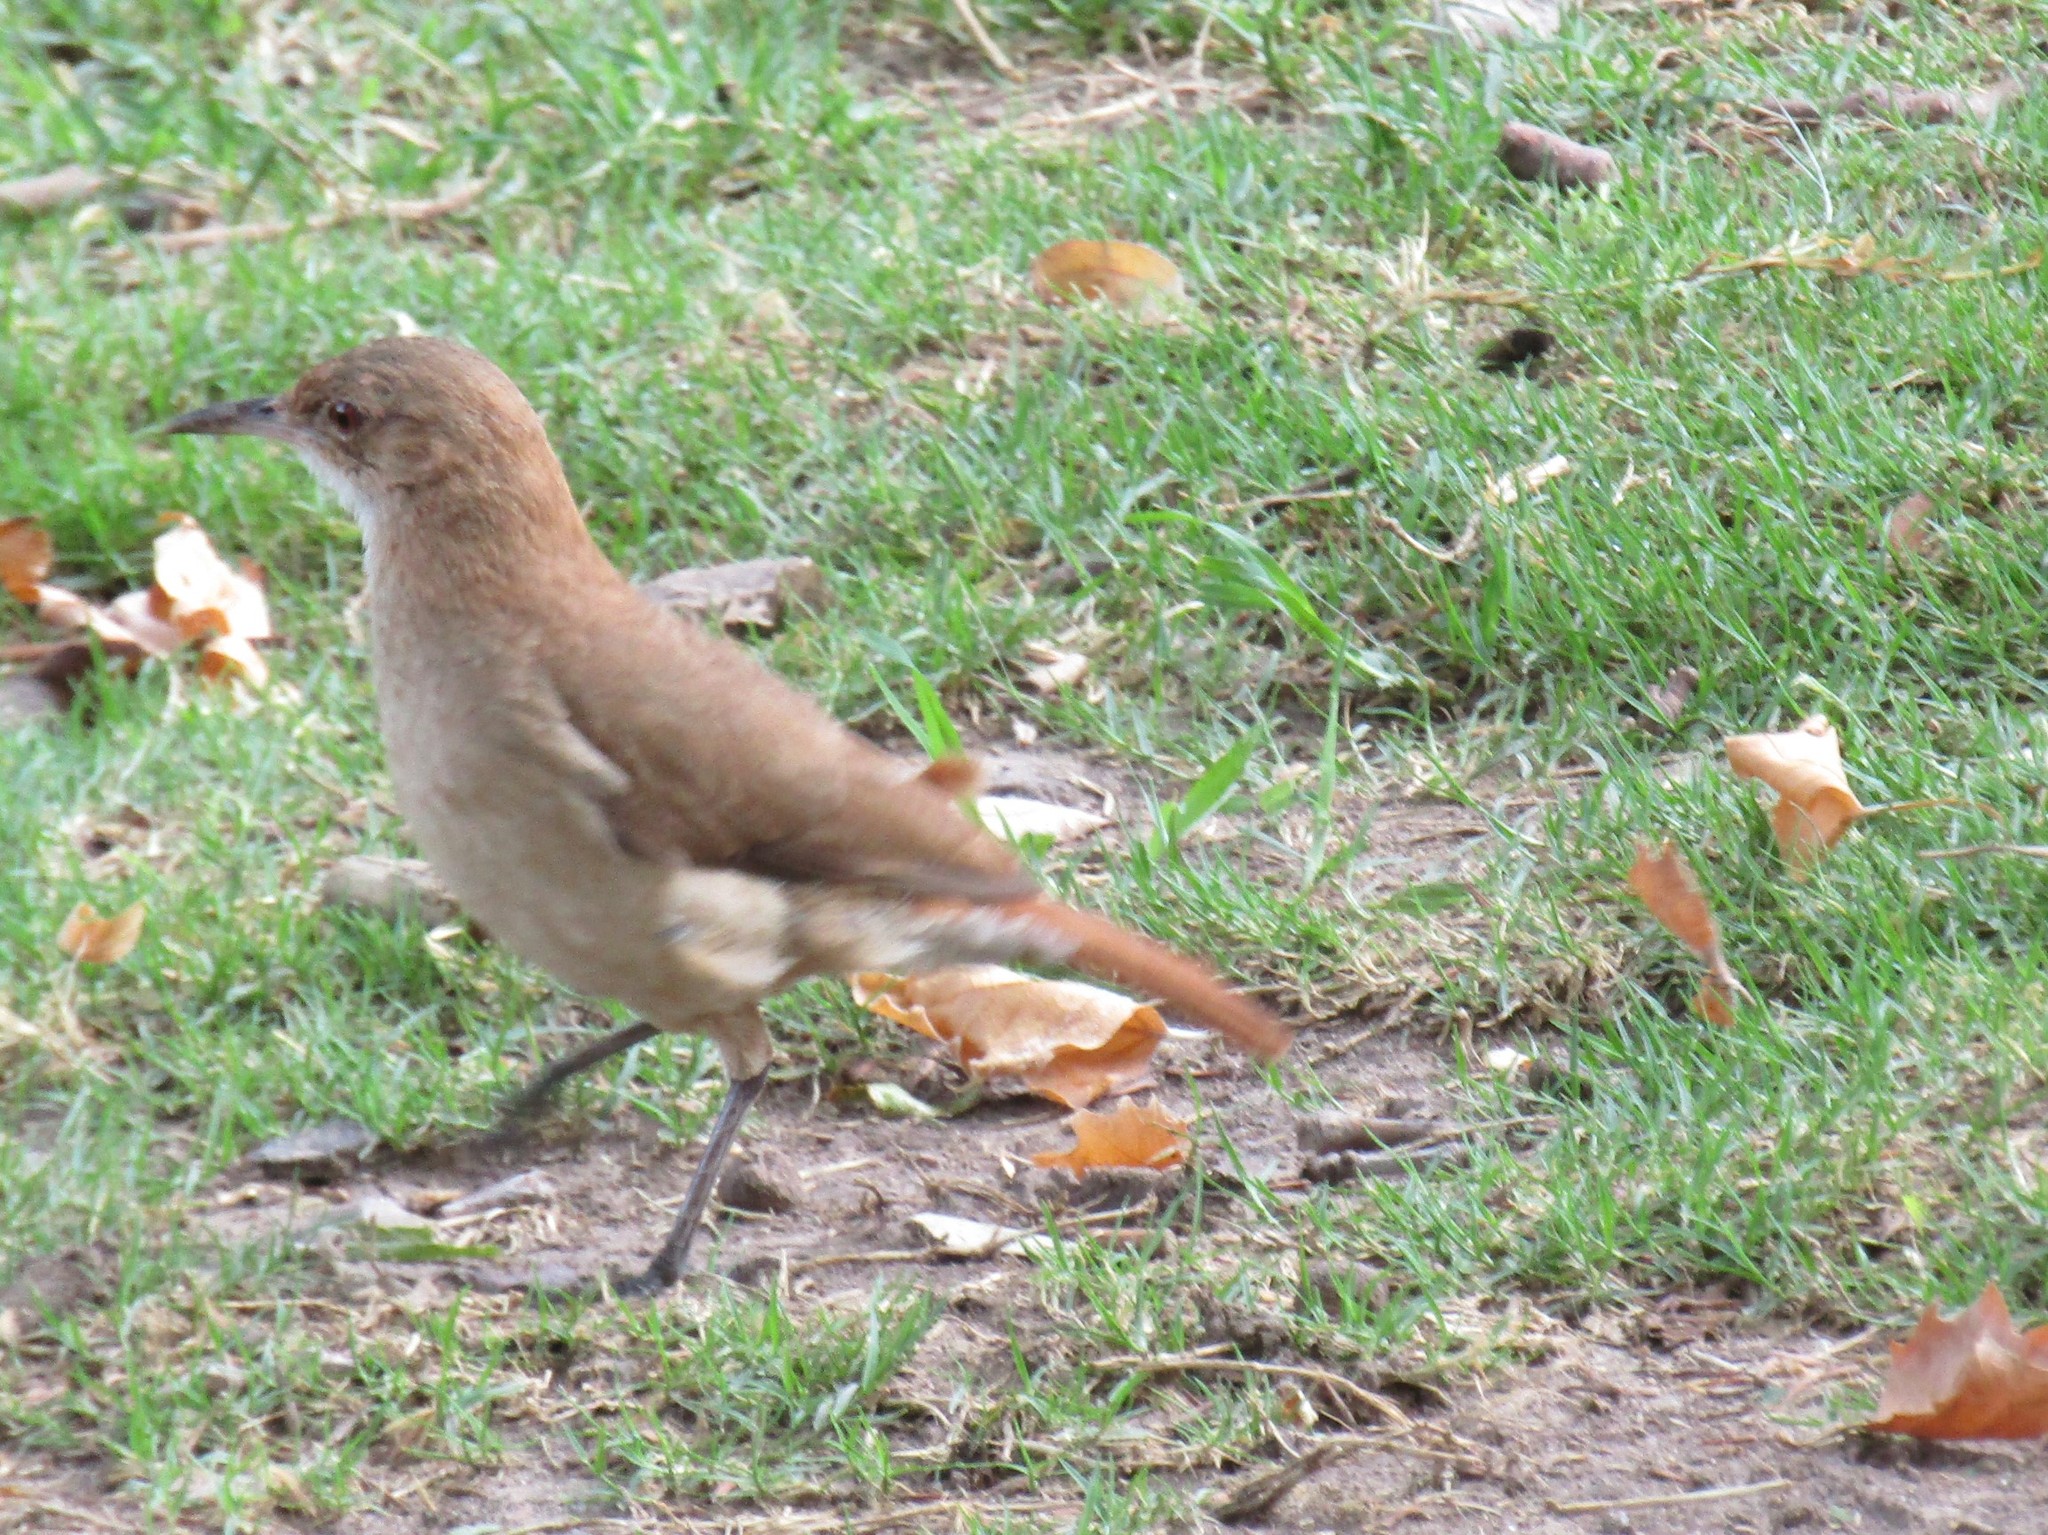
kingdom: Animalia
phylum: Chordata
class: Aves
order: Passeriformes
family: Furnariidae
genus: Furnarius
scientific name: Furnarius rufus
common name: Rufous hornero
